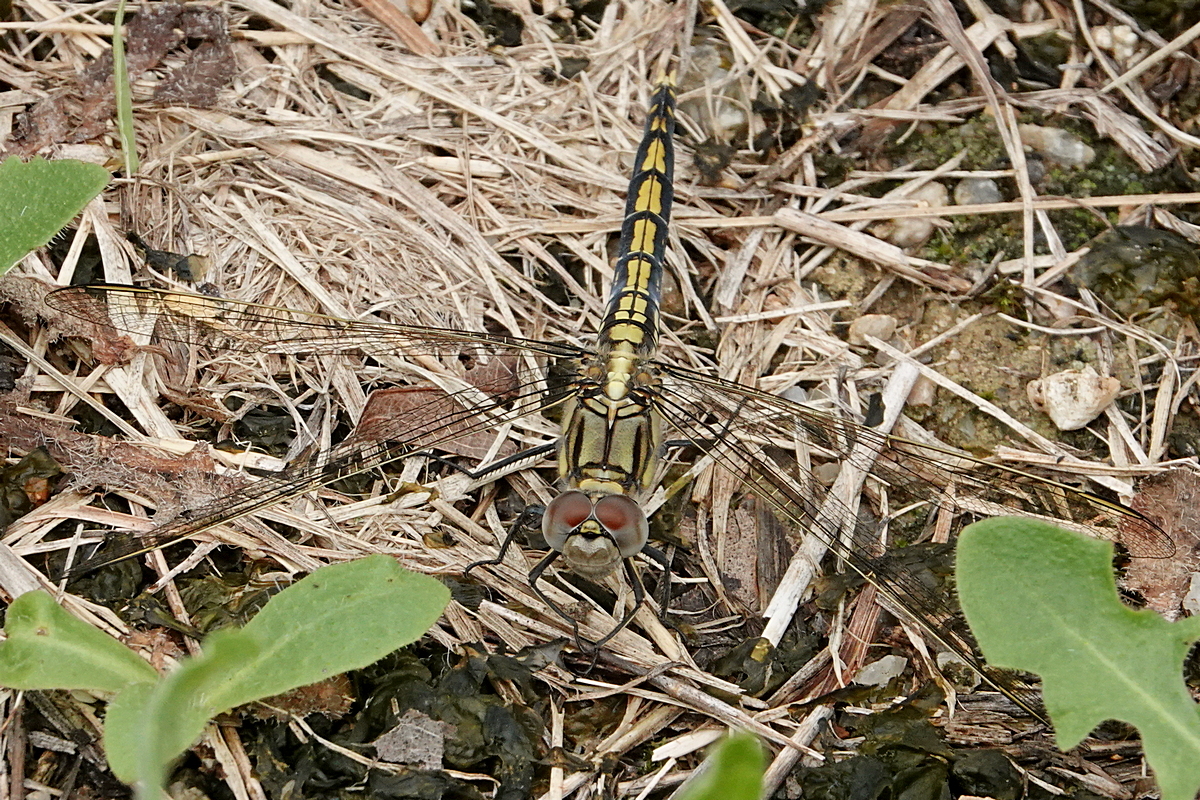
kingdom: Animalia
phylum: Arthropoda
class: Insecta
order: Odonata
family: Libellulidae
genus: Orthetrum
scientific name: Orthetrum caledonicum
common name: Blue skimmer
